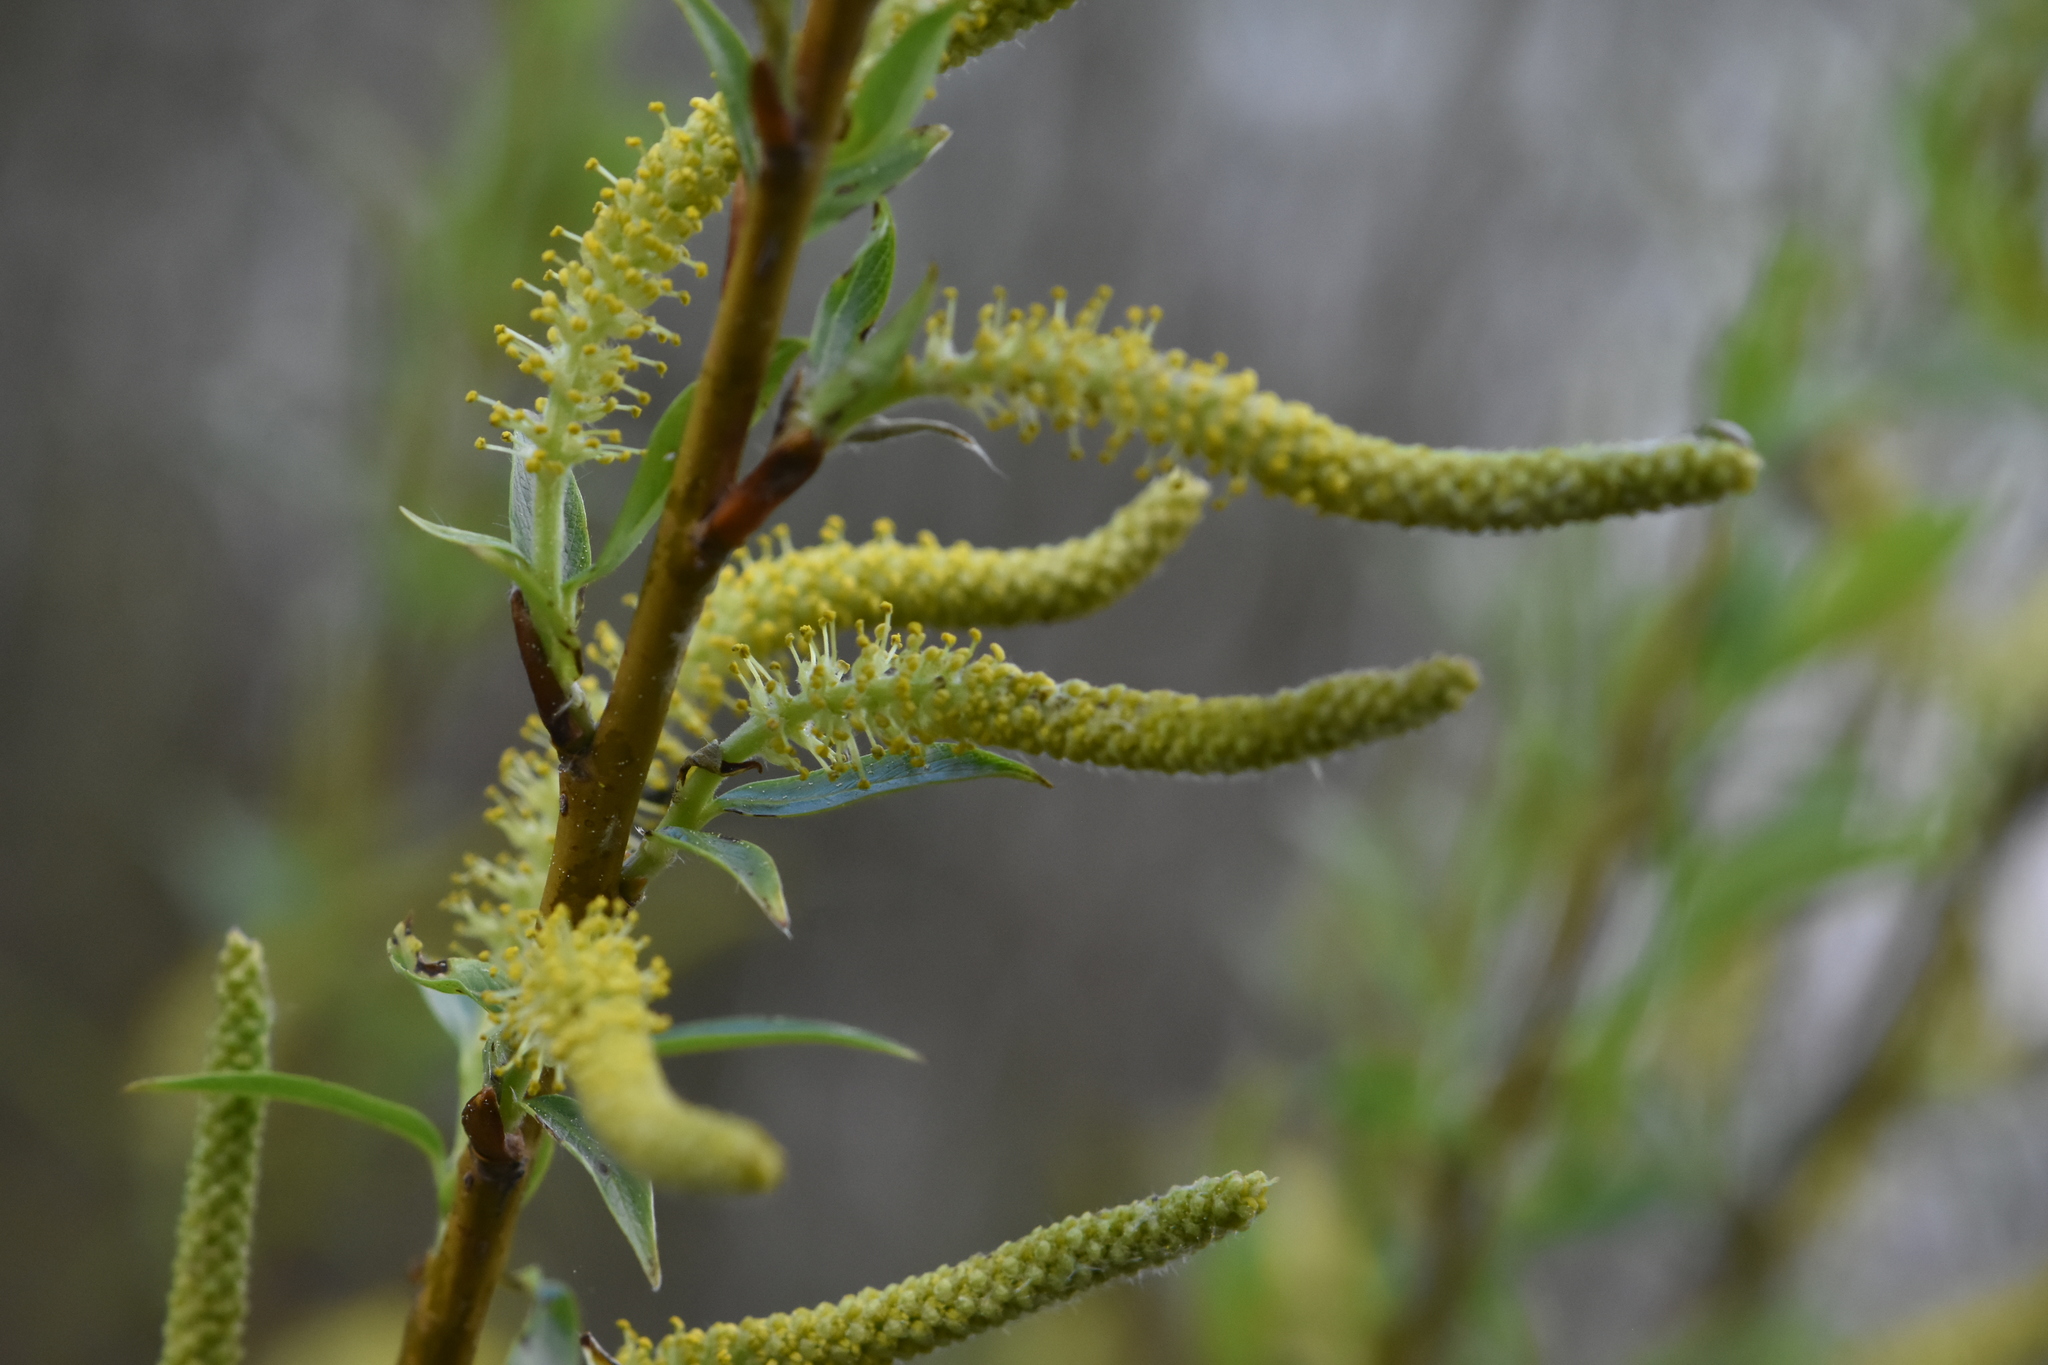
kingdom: Plantae
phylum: Tracheophyta
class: Magnoliopsida
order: Malpighiales
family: Salicaceae
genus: Salix
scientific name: Salix triandra
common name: Almond willow
